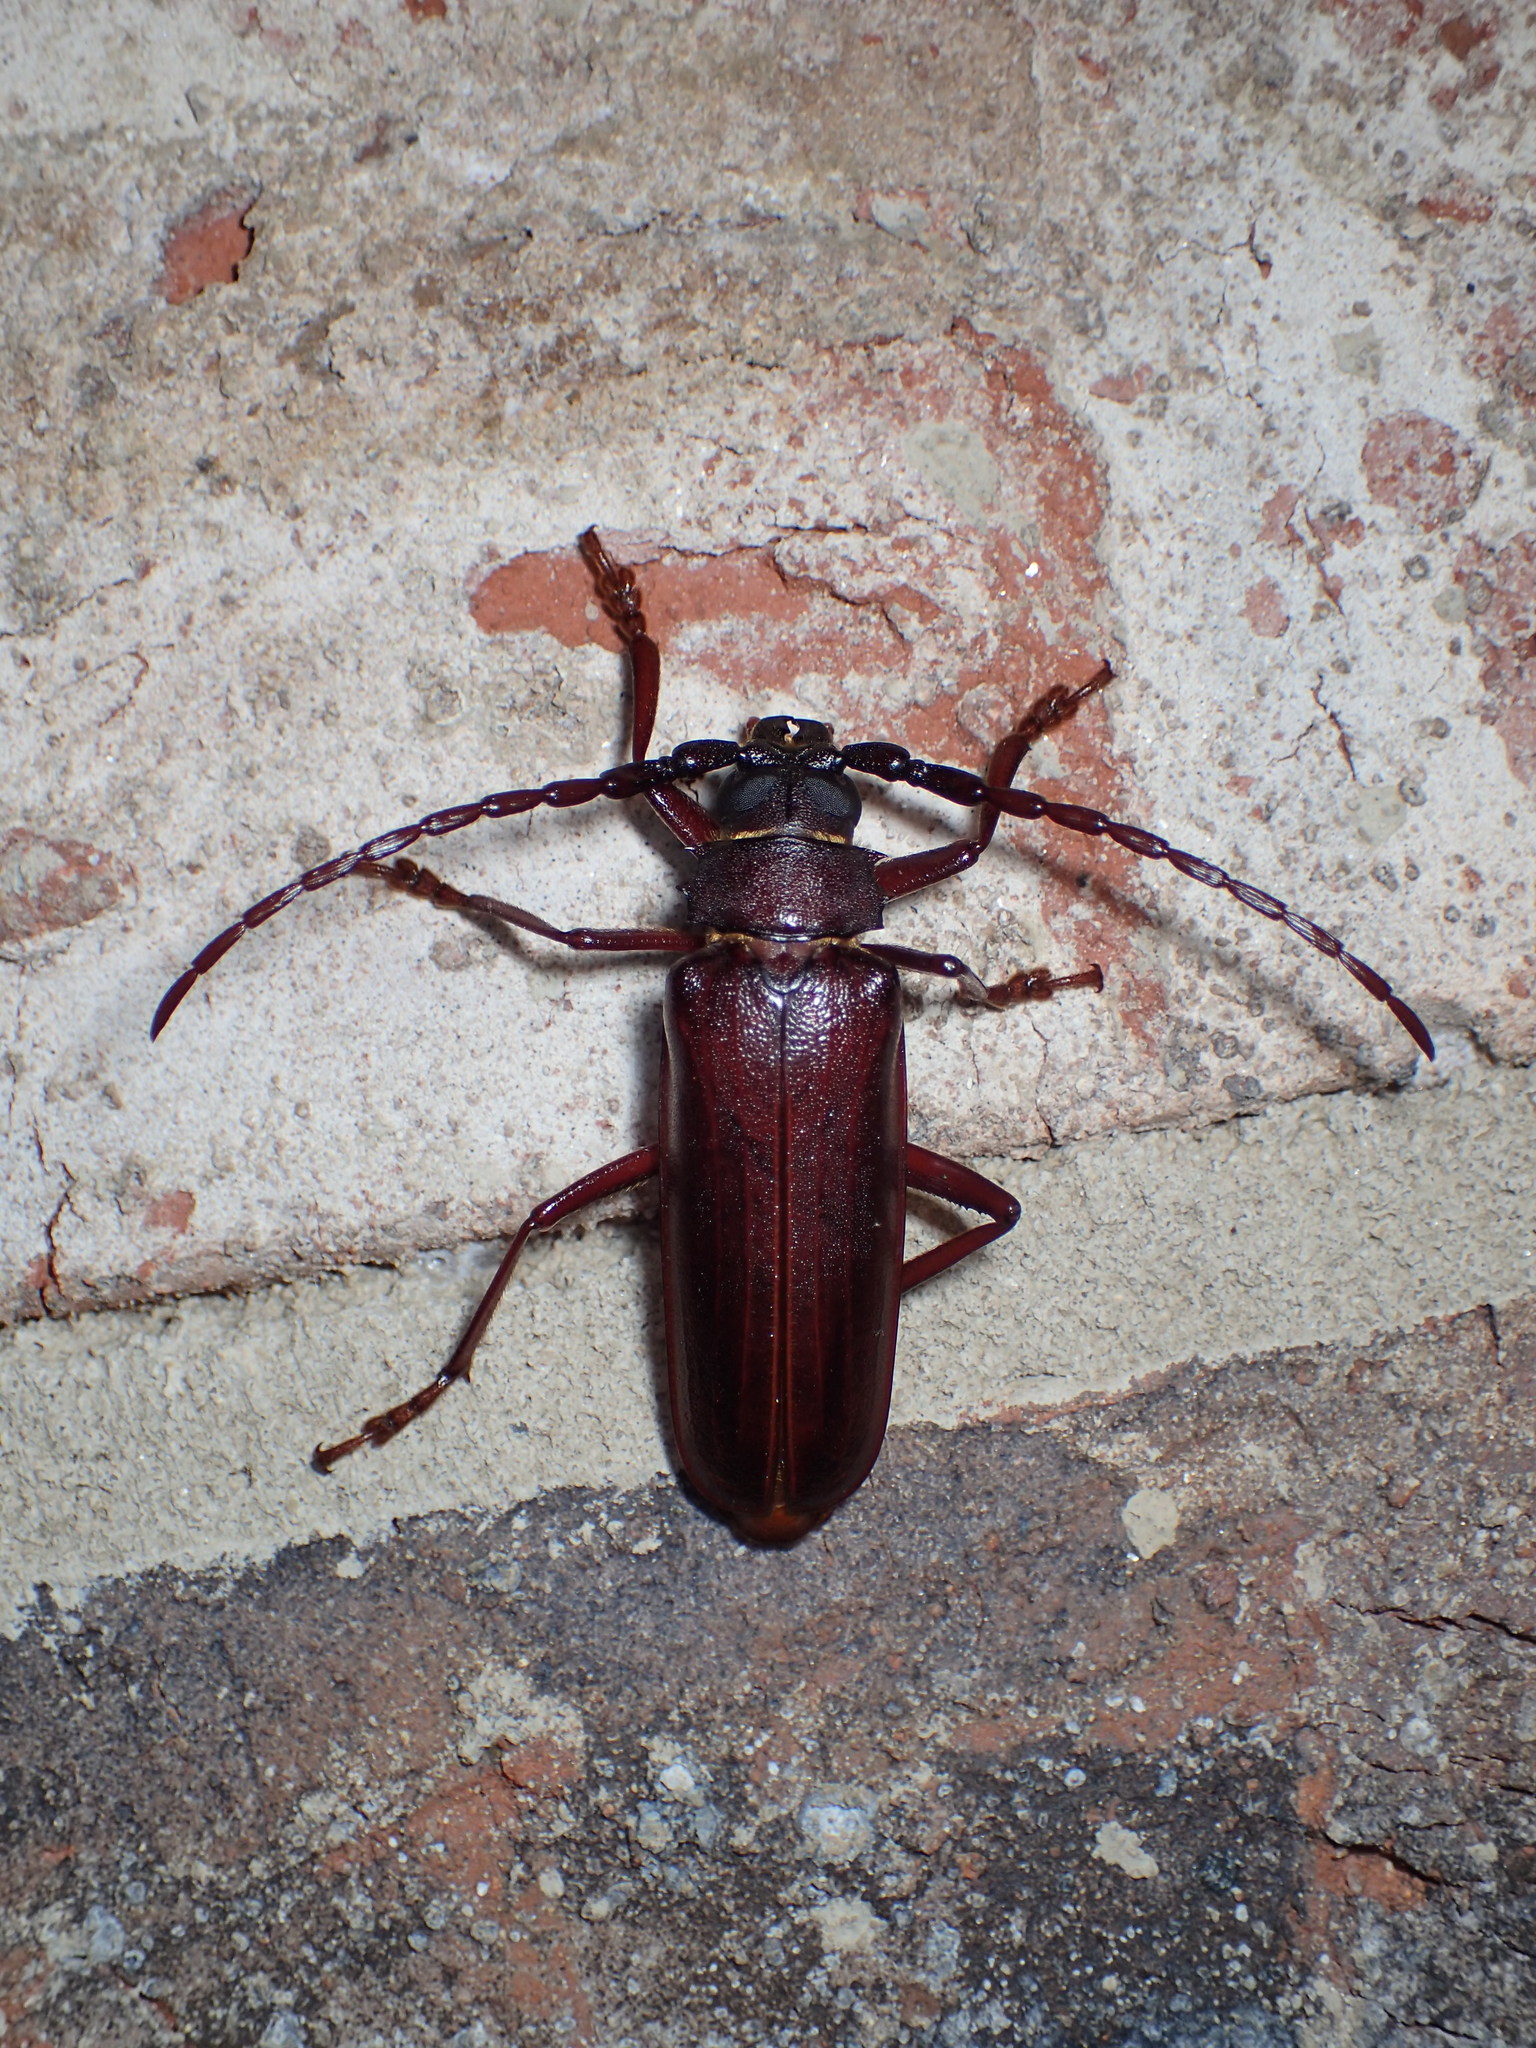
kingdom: Animalia
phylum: Arthropoda
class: Insecta
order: Coleoptera
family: Cerambycidae
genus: Orthosoma
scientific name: Orthosoma brunneum
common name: Brown prionid beetle
